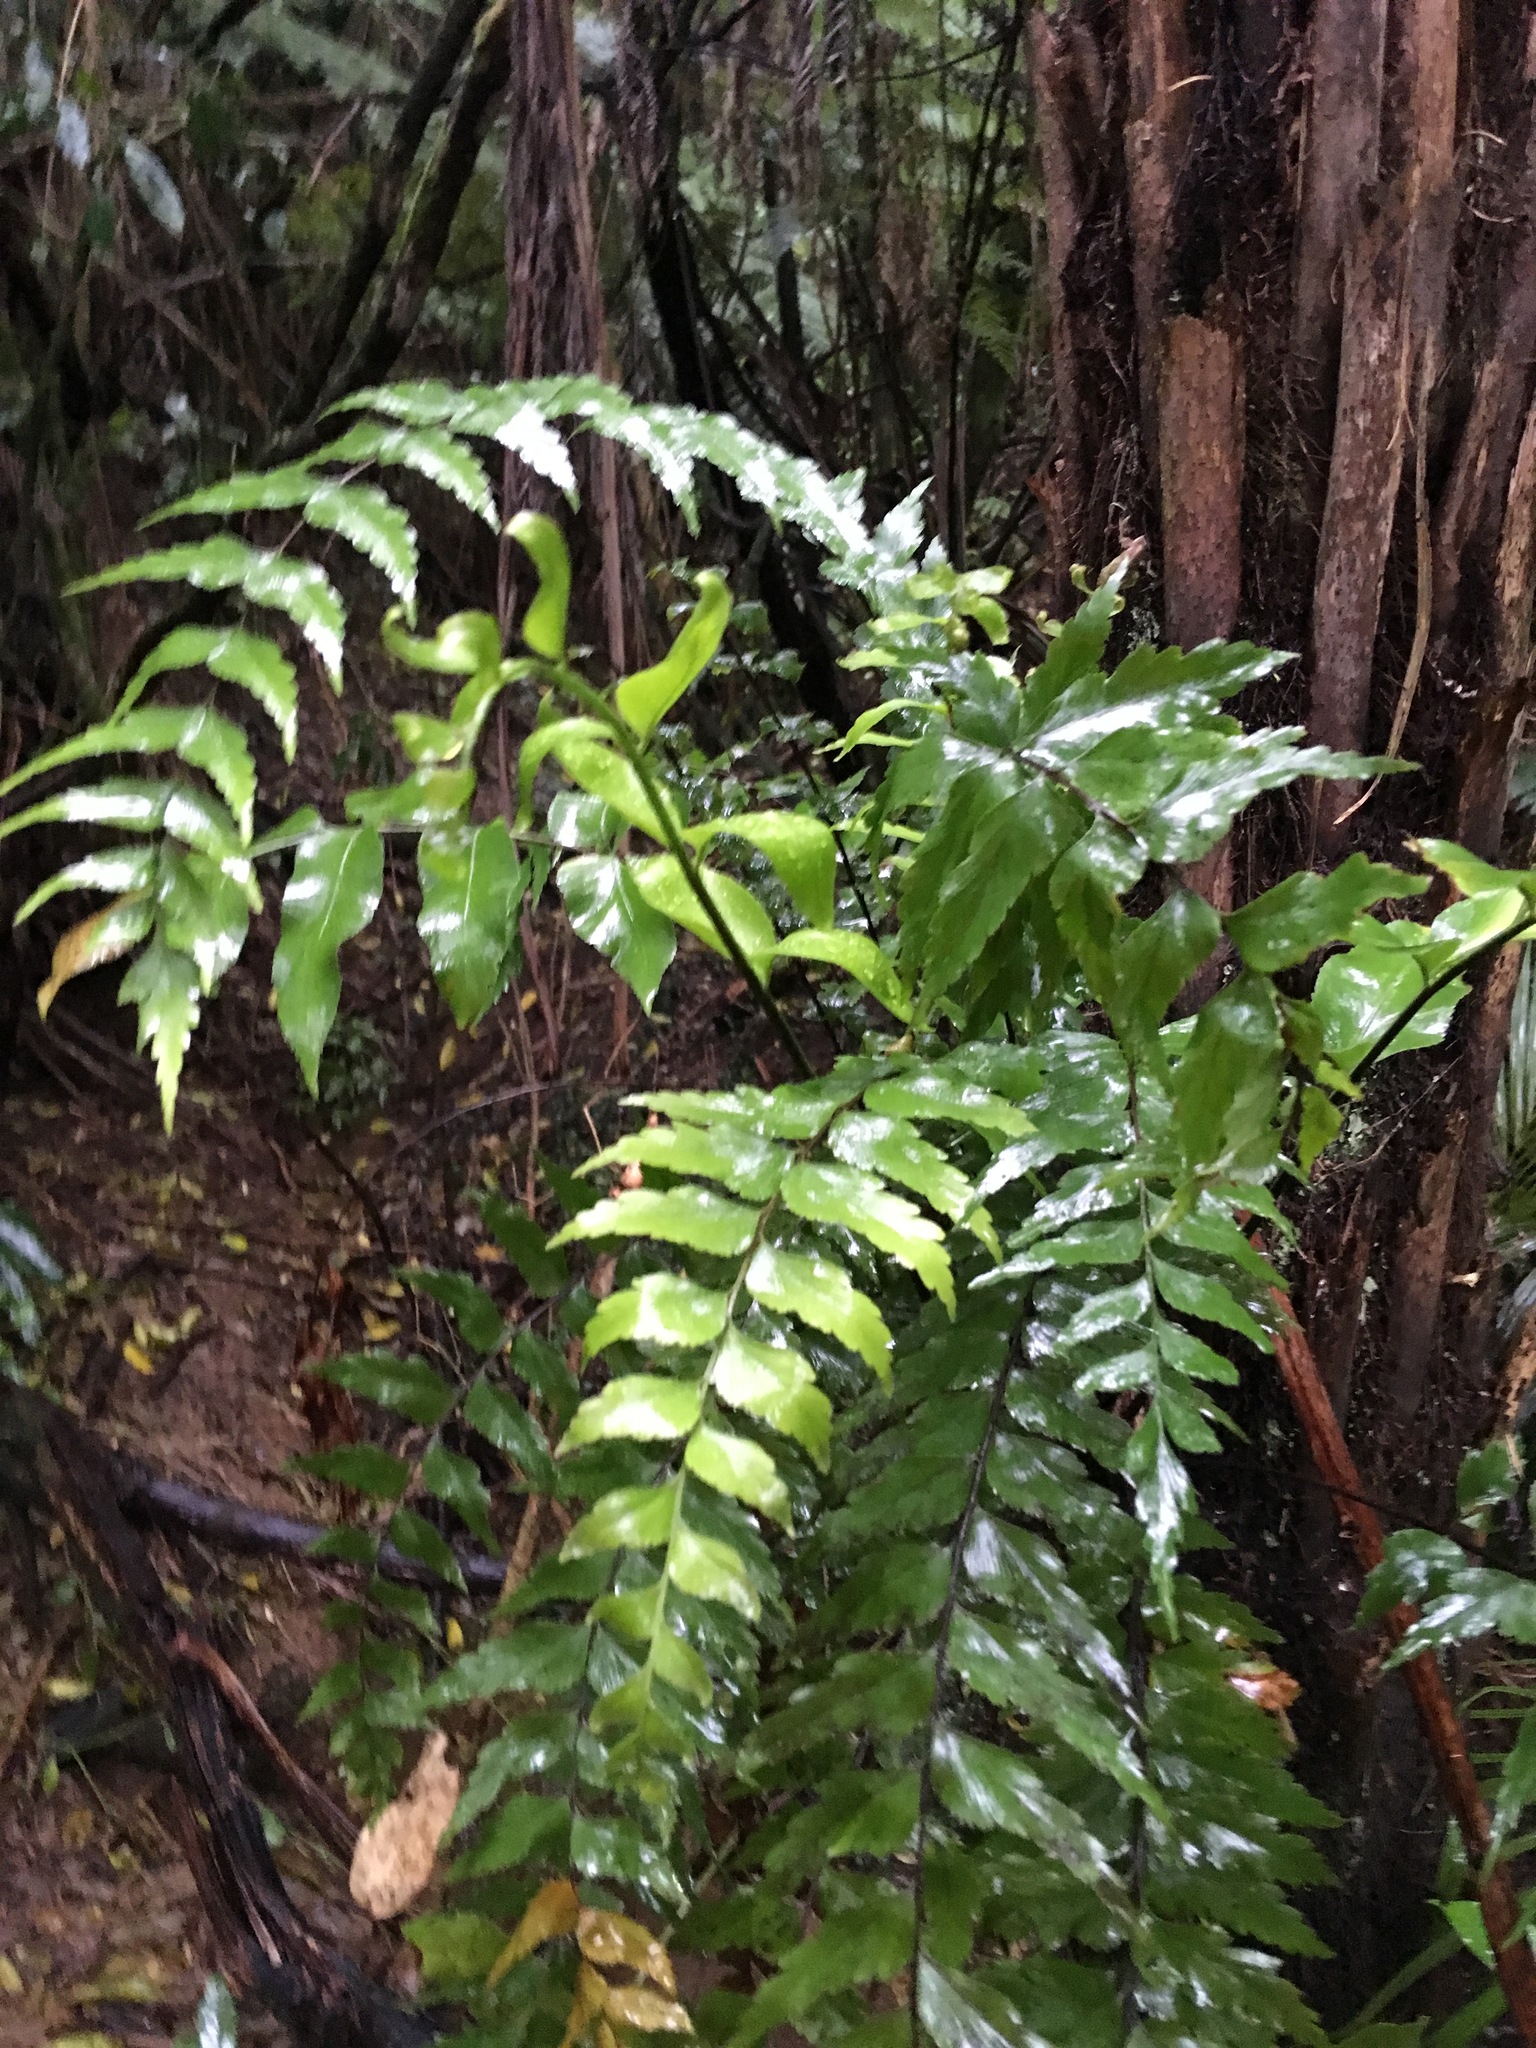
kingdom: Plantae
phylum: Tracheophyta
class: Polypodiopsida
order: Polypodiales
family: Aspleniaceae
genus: Asplenium
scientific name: Asplenium polyodon
